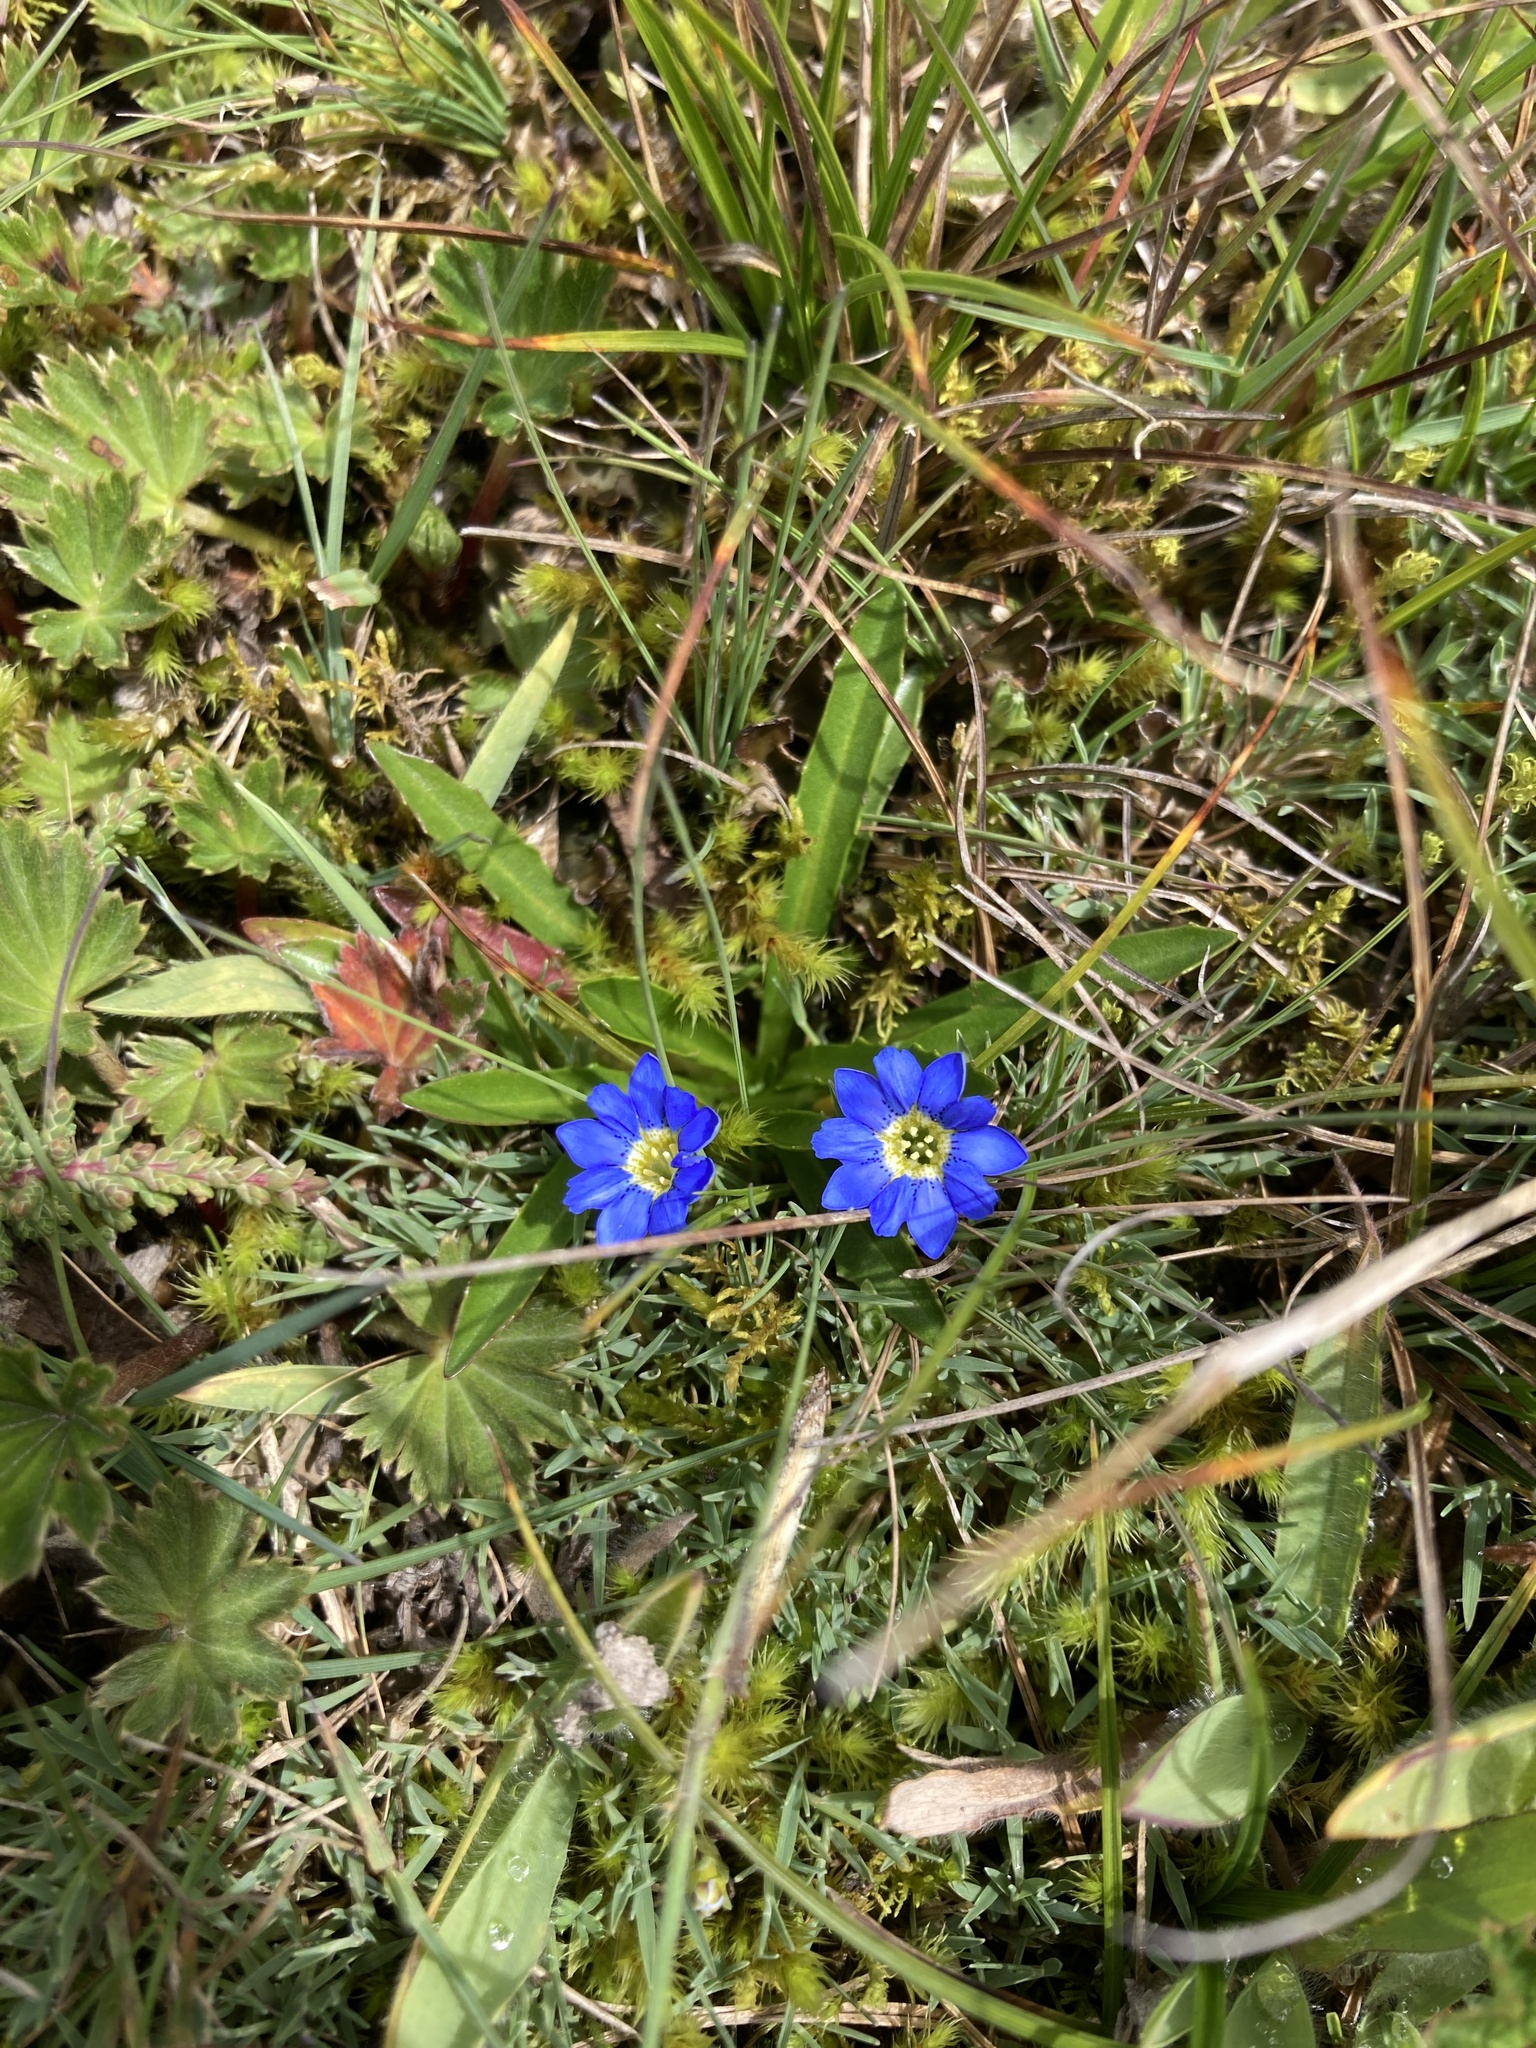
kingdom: Plantae
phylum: Tracheophyta
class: Magnoliopsida
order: Gentianales
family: Gentianaceae
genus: Gentiana
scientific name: Gentiana sedifolia
